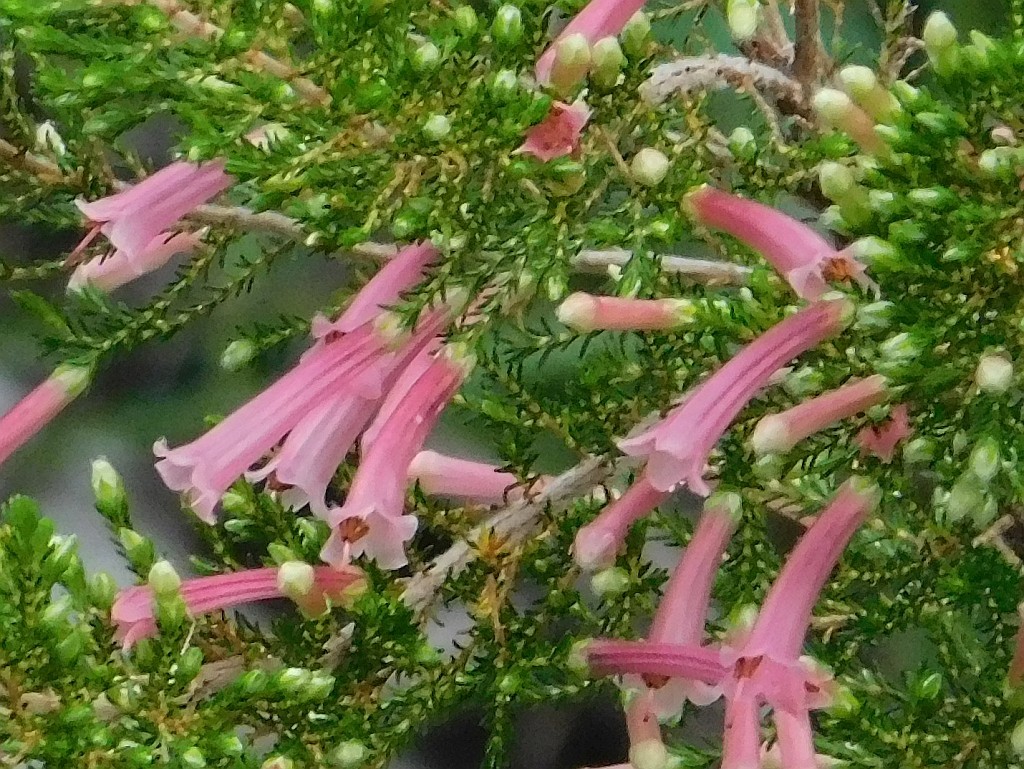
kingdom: Plantae
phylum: Tracheophyta
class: Magnoliopsida
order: Ericales
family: Ericaceae
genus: Erica
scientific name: Erica curviflora
